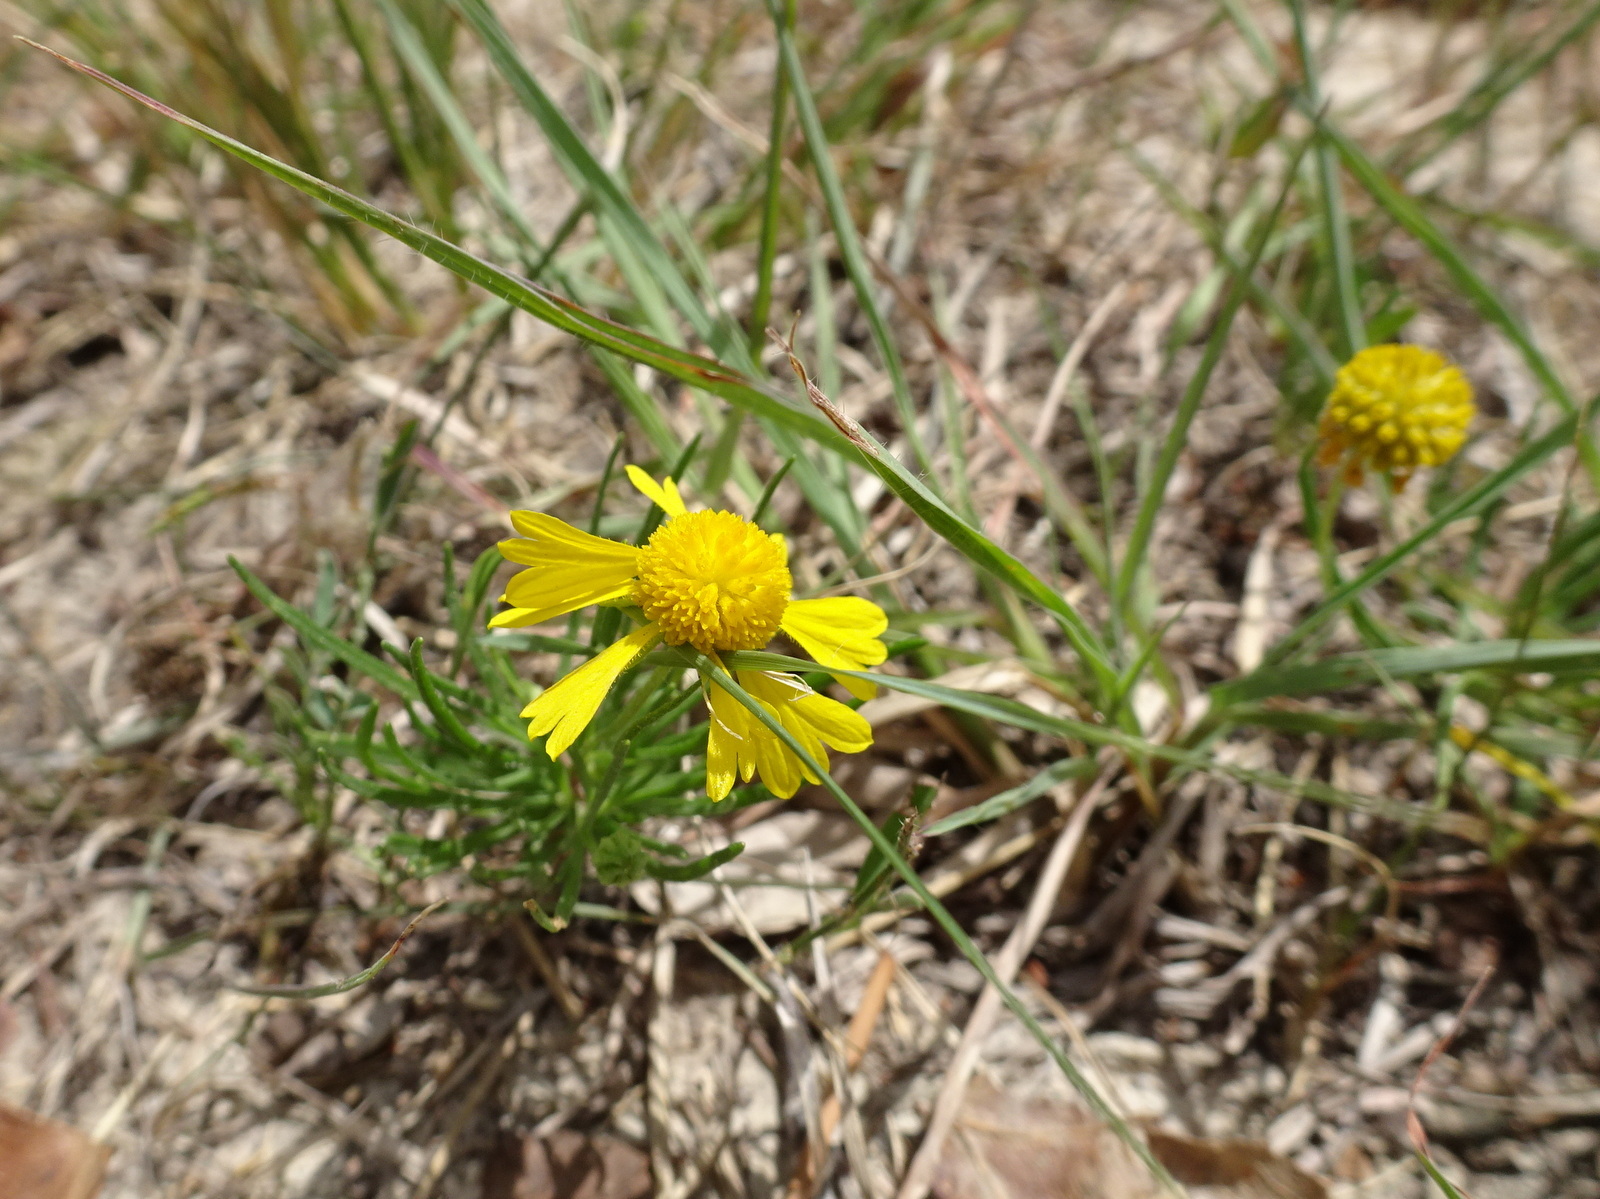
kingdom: Plantae
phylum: Tracheophyta
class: Magnoliopsida
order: Asterales
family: Asteraceae
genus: Helenium
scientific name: Helenium amarum
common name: Bitter sneezeweed
